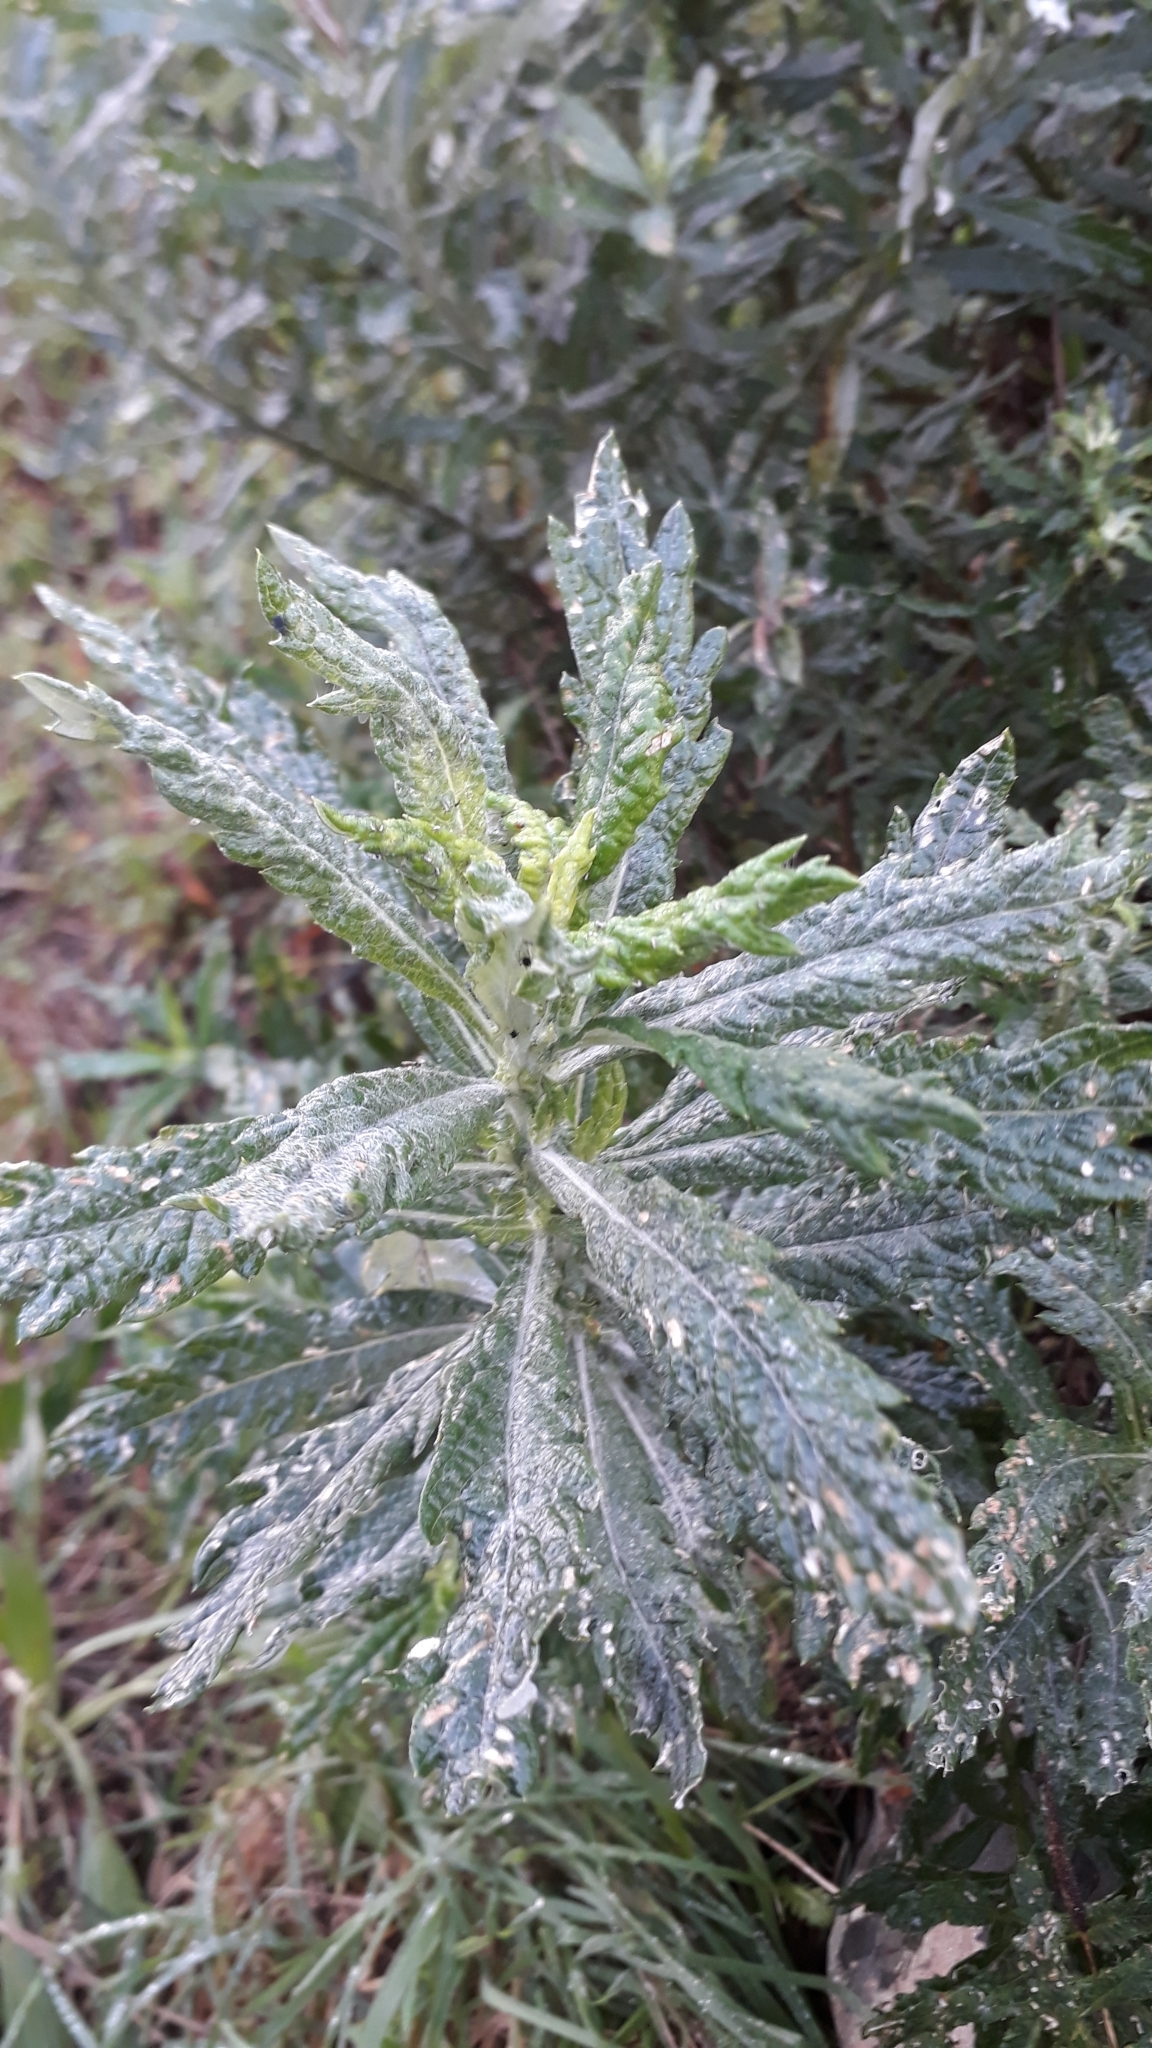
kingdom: Plantae
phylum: Tracheophyta
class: Magnoliopsida
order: Asterales
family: Asteraceae
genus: Senecio
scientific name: Senecio pterophorus
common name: Shoddy ragwort
